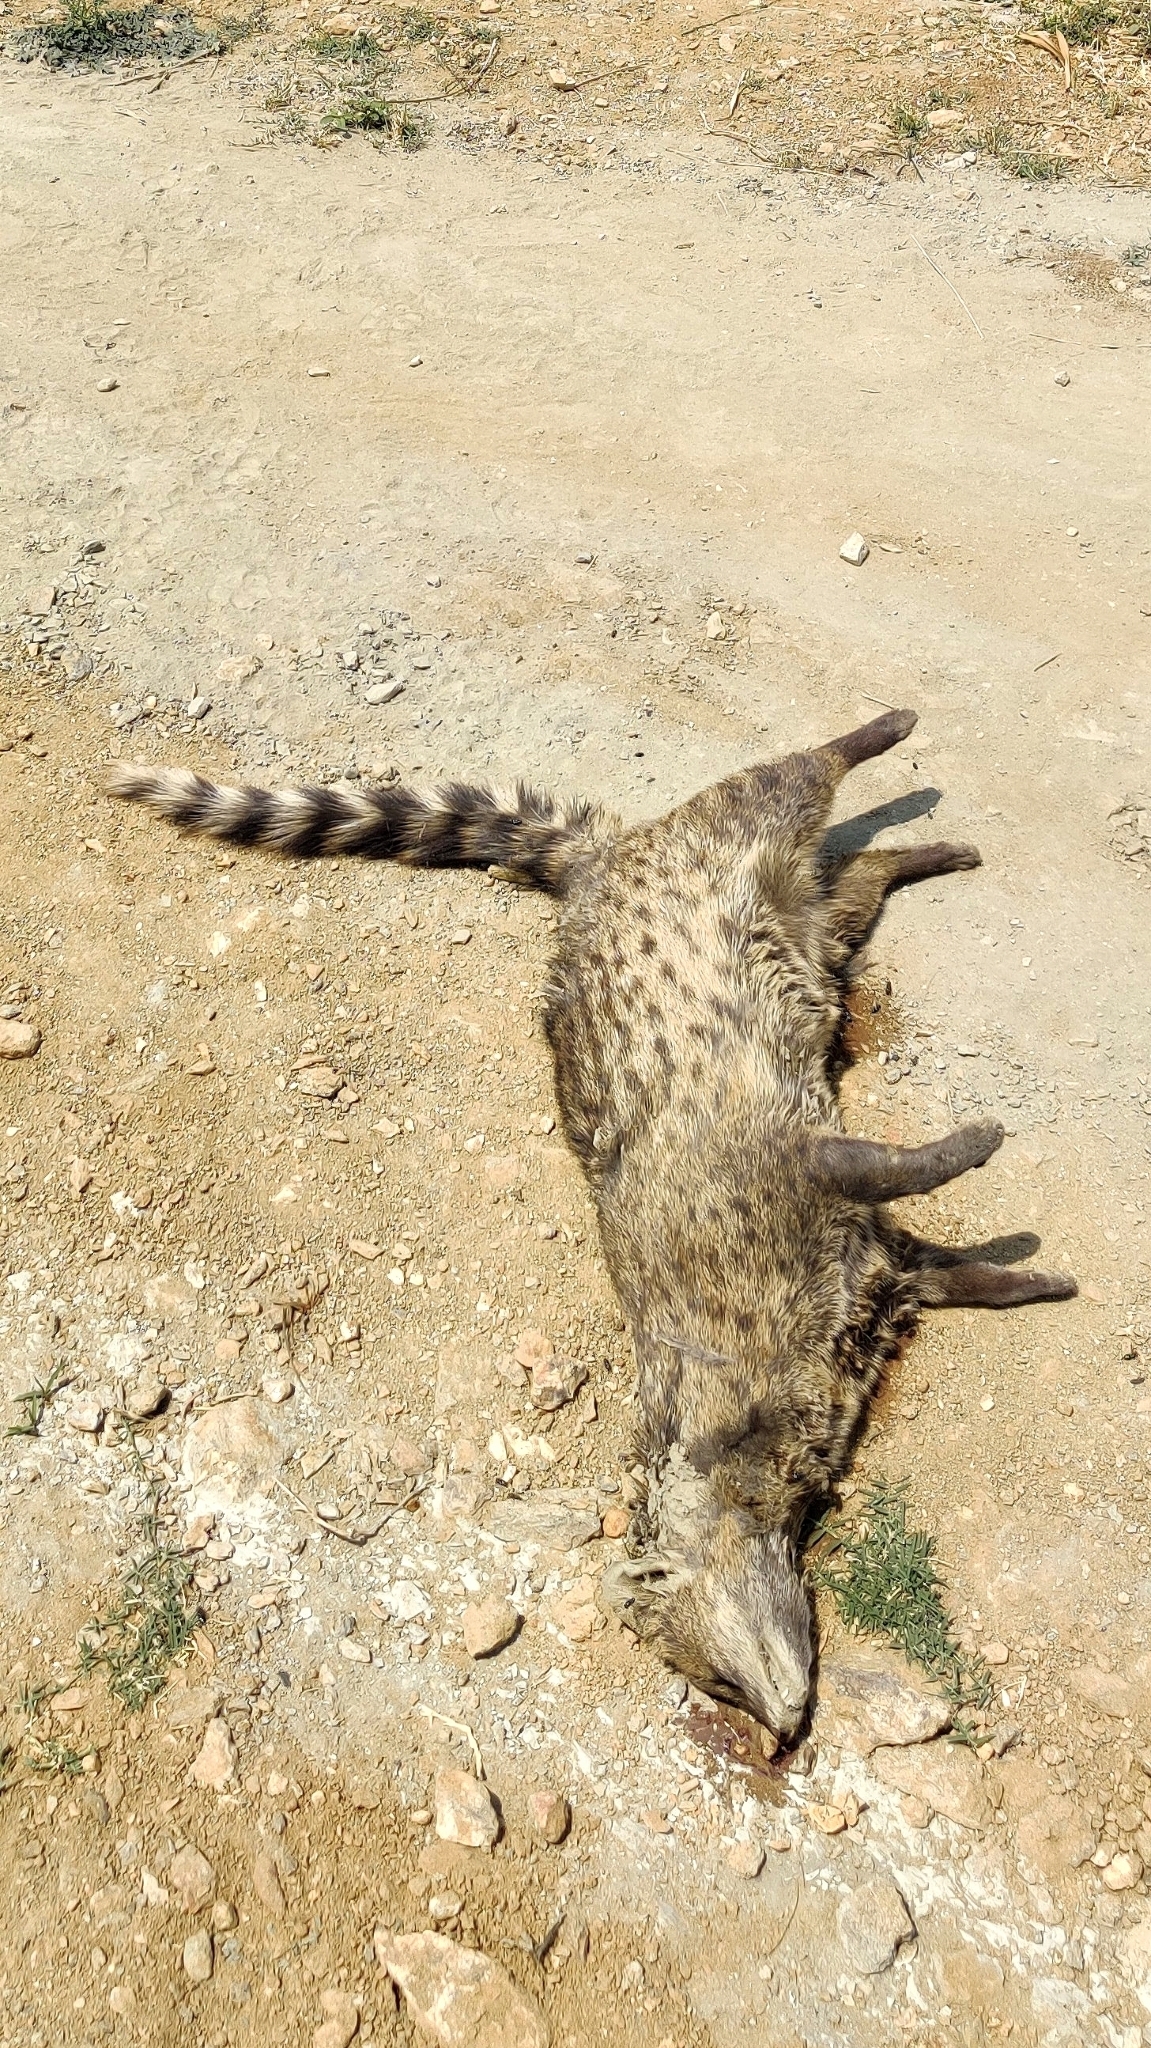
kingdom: Animalia
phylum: Chordata
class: Mammalia
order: Carnivora
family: Viverridae
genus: Viverricula
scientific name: Viverricula indica
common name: Small indian civet
